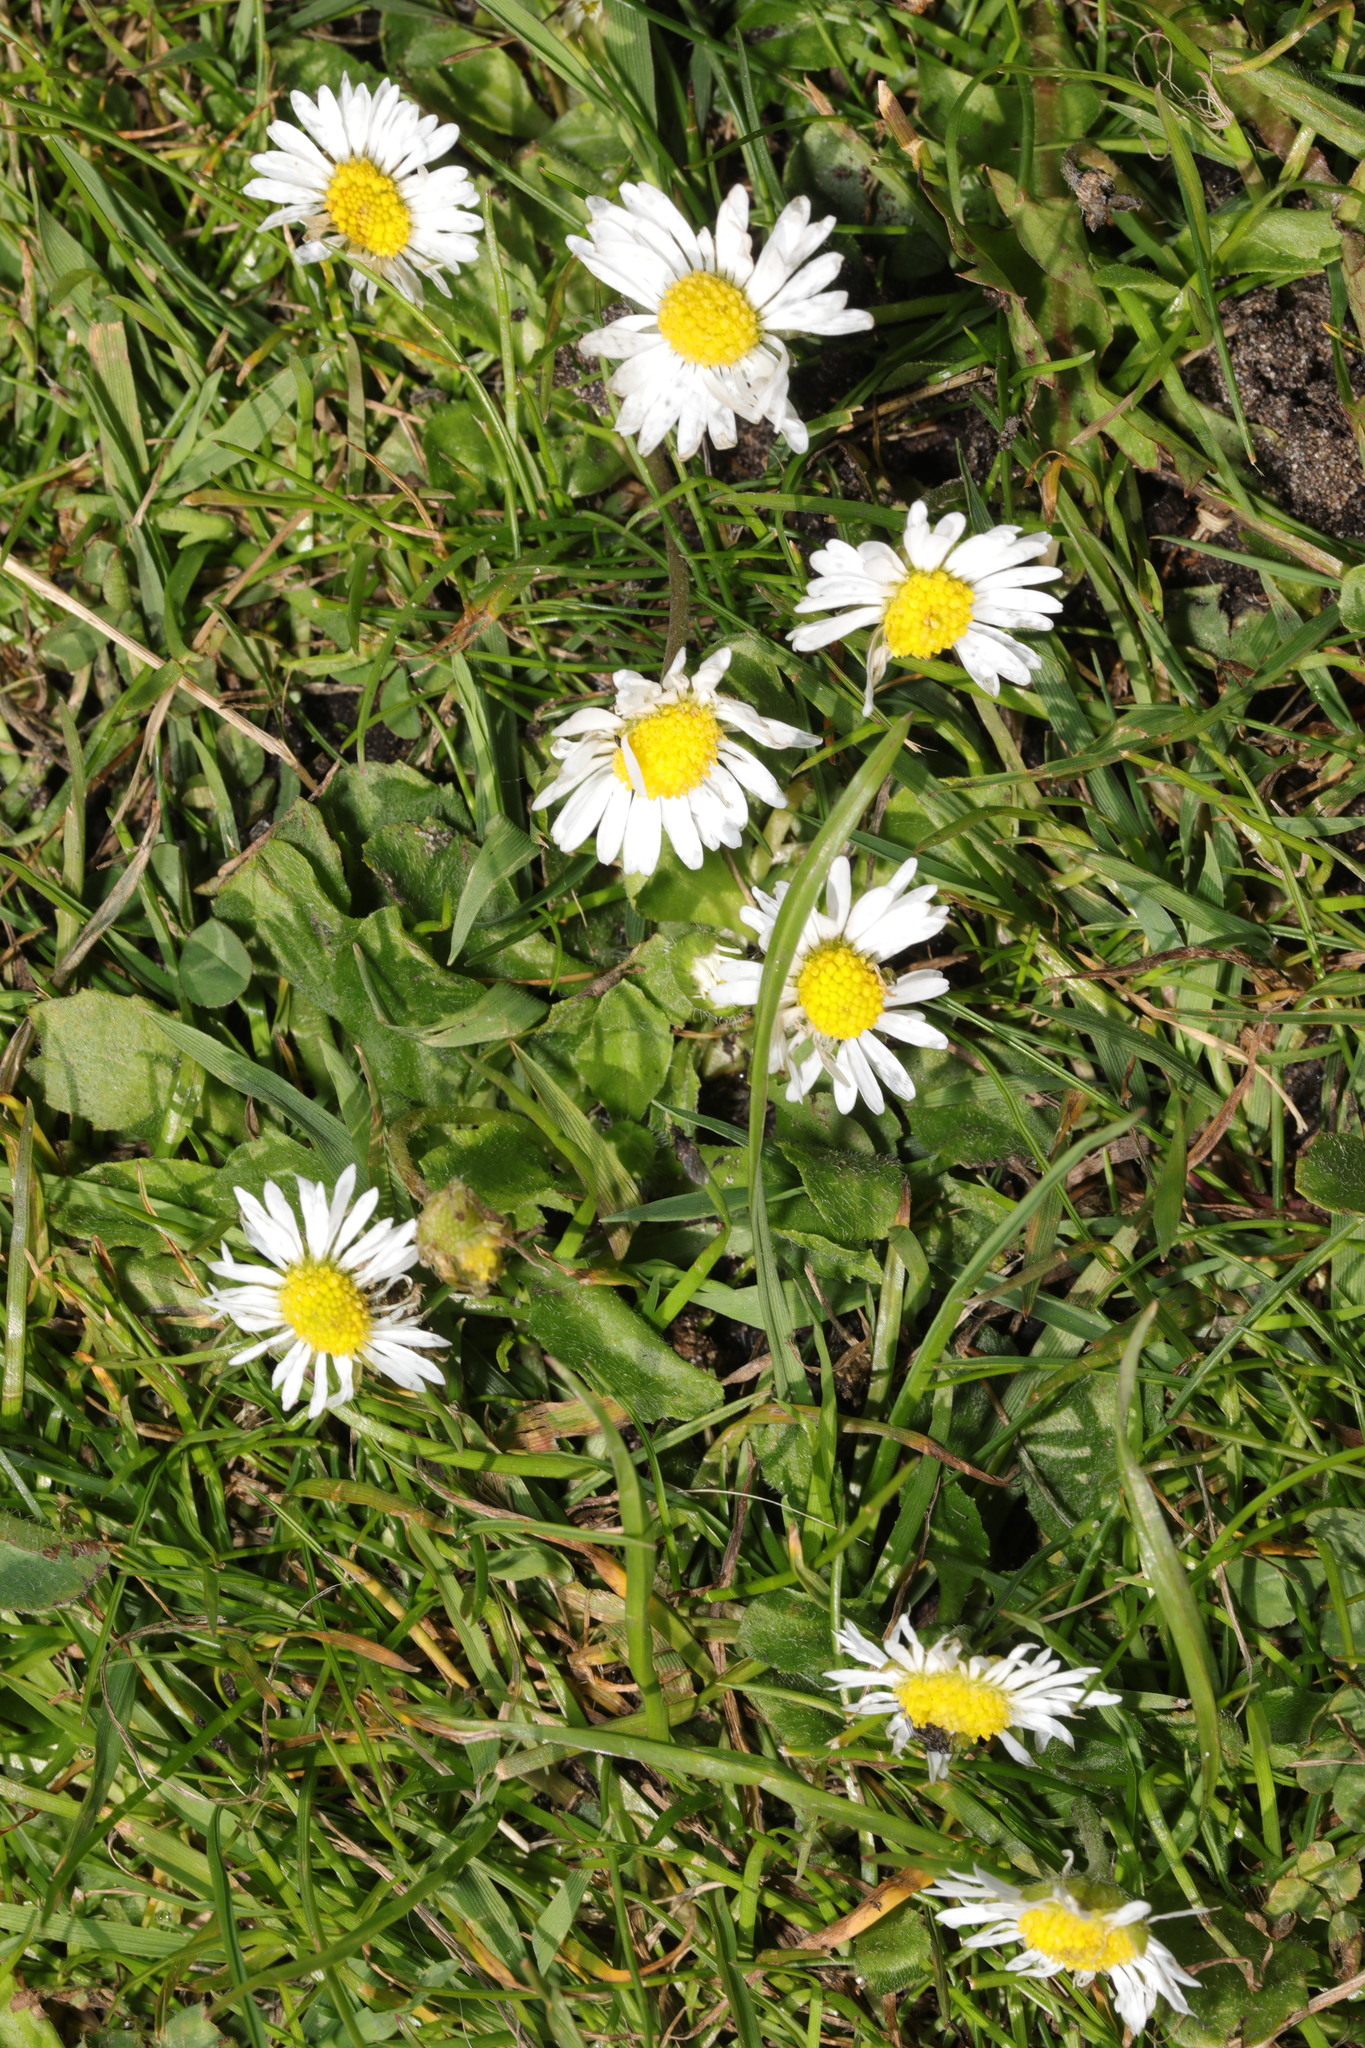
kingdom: Plantae
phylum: Tracheophyta
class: Magnoliopsida
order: Asterales
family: Asteraceae
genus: Bellis
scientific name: Bellis perennis
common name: Lawndaisy
